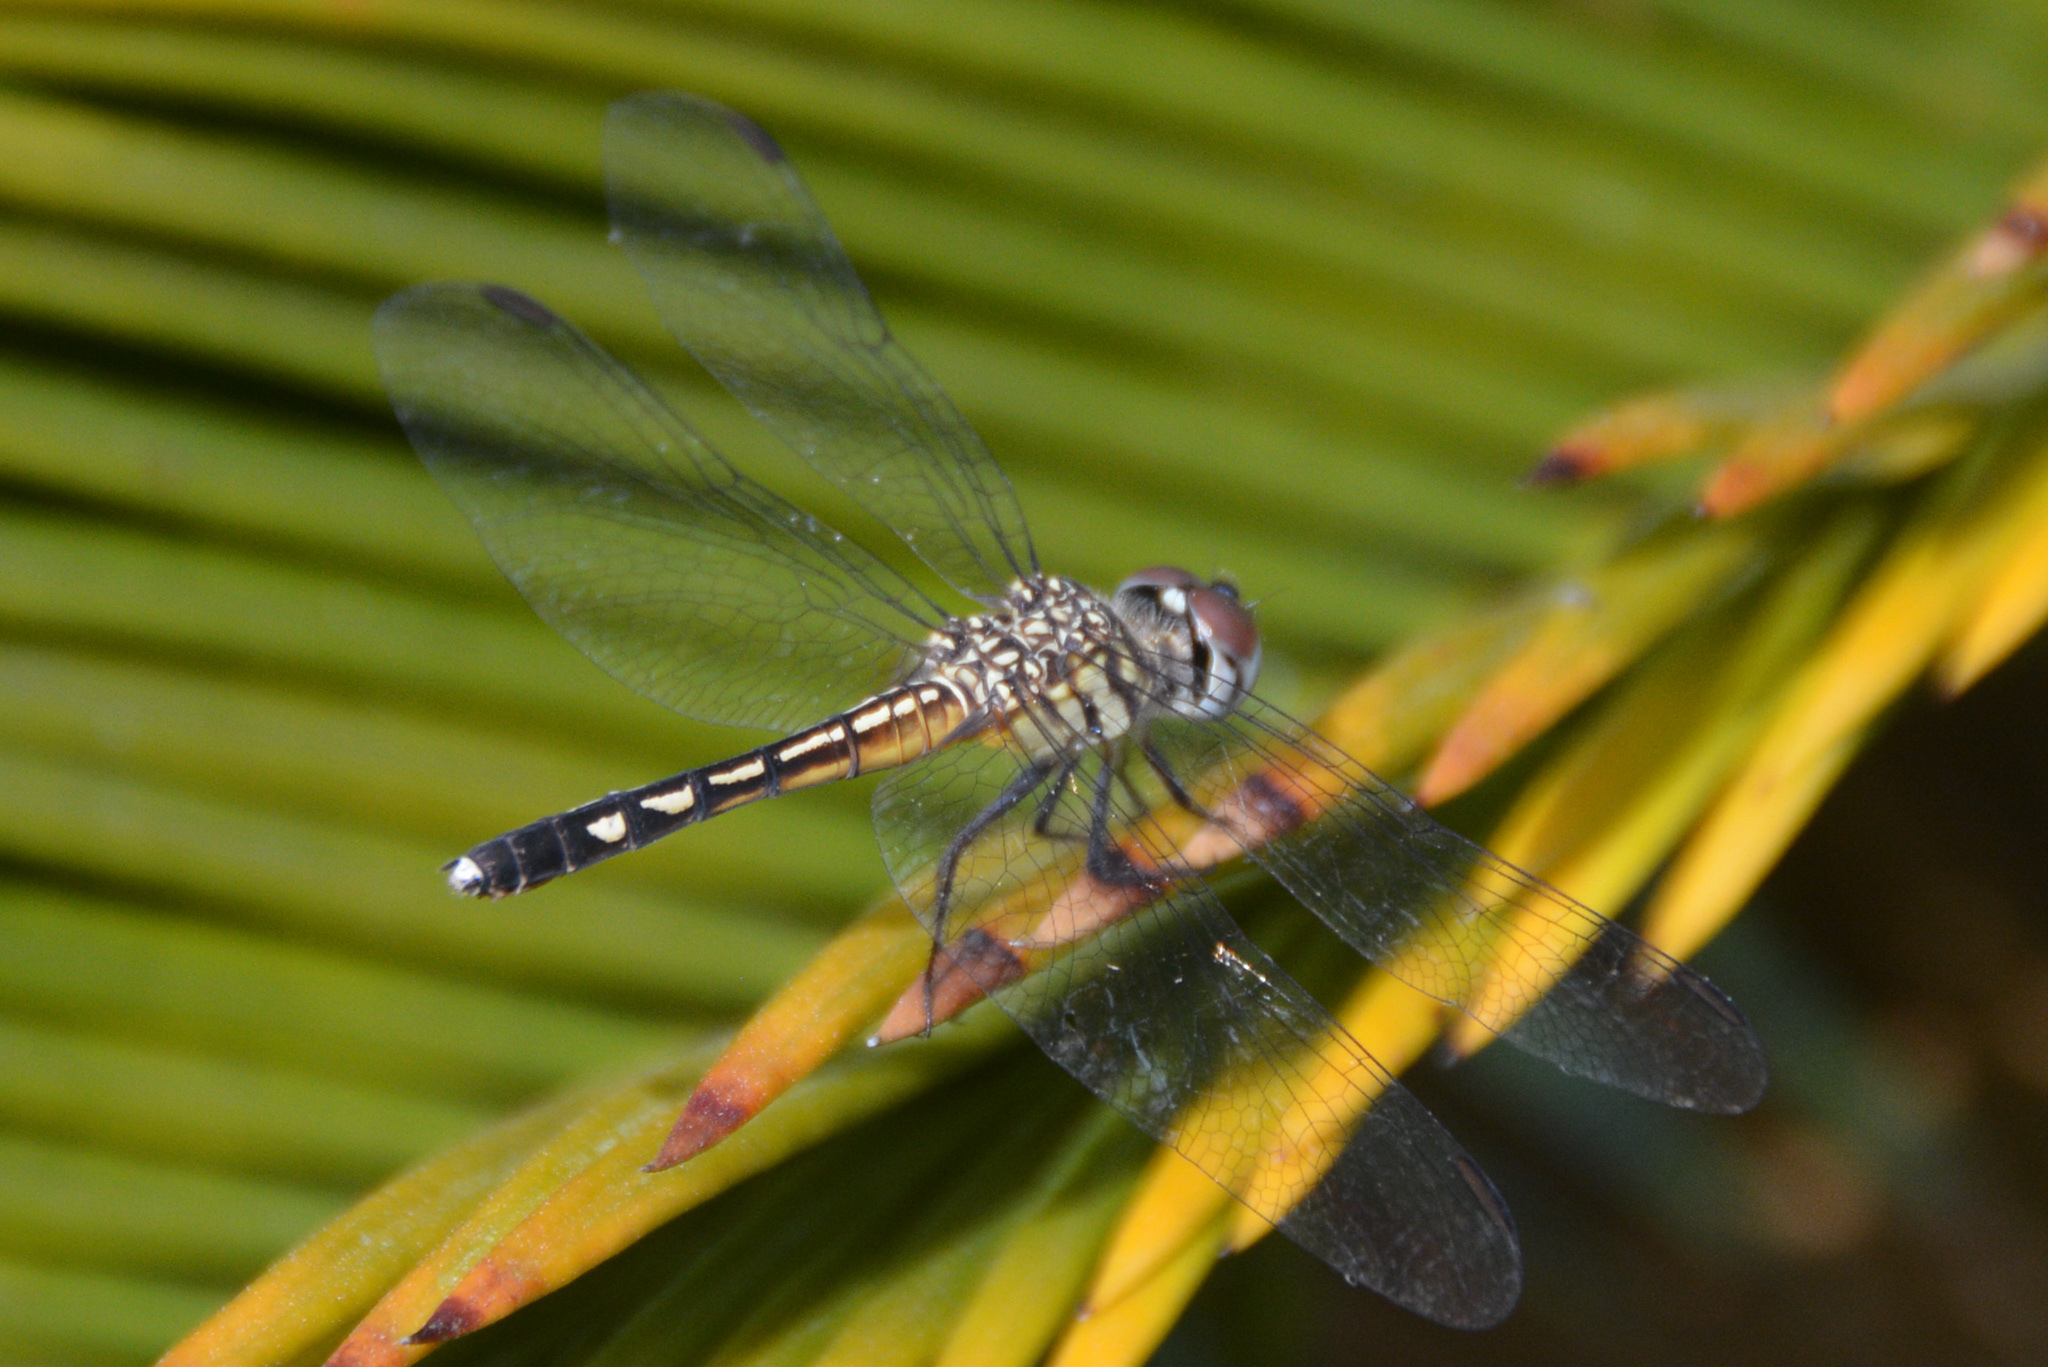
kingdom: Animalia
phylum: Arthropoda
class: Insecta
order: Odonata
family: Libellulidae
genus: Pachydiplax
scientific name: Pachydiplax longipennis
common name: Blue dasher
